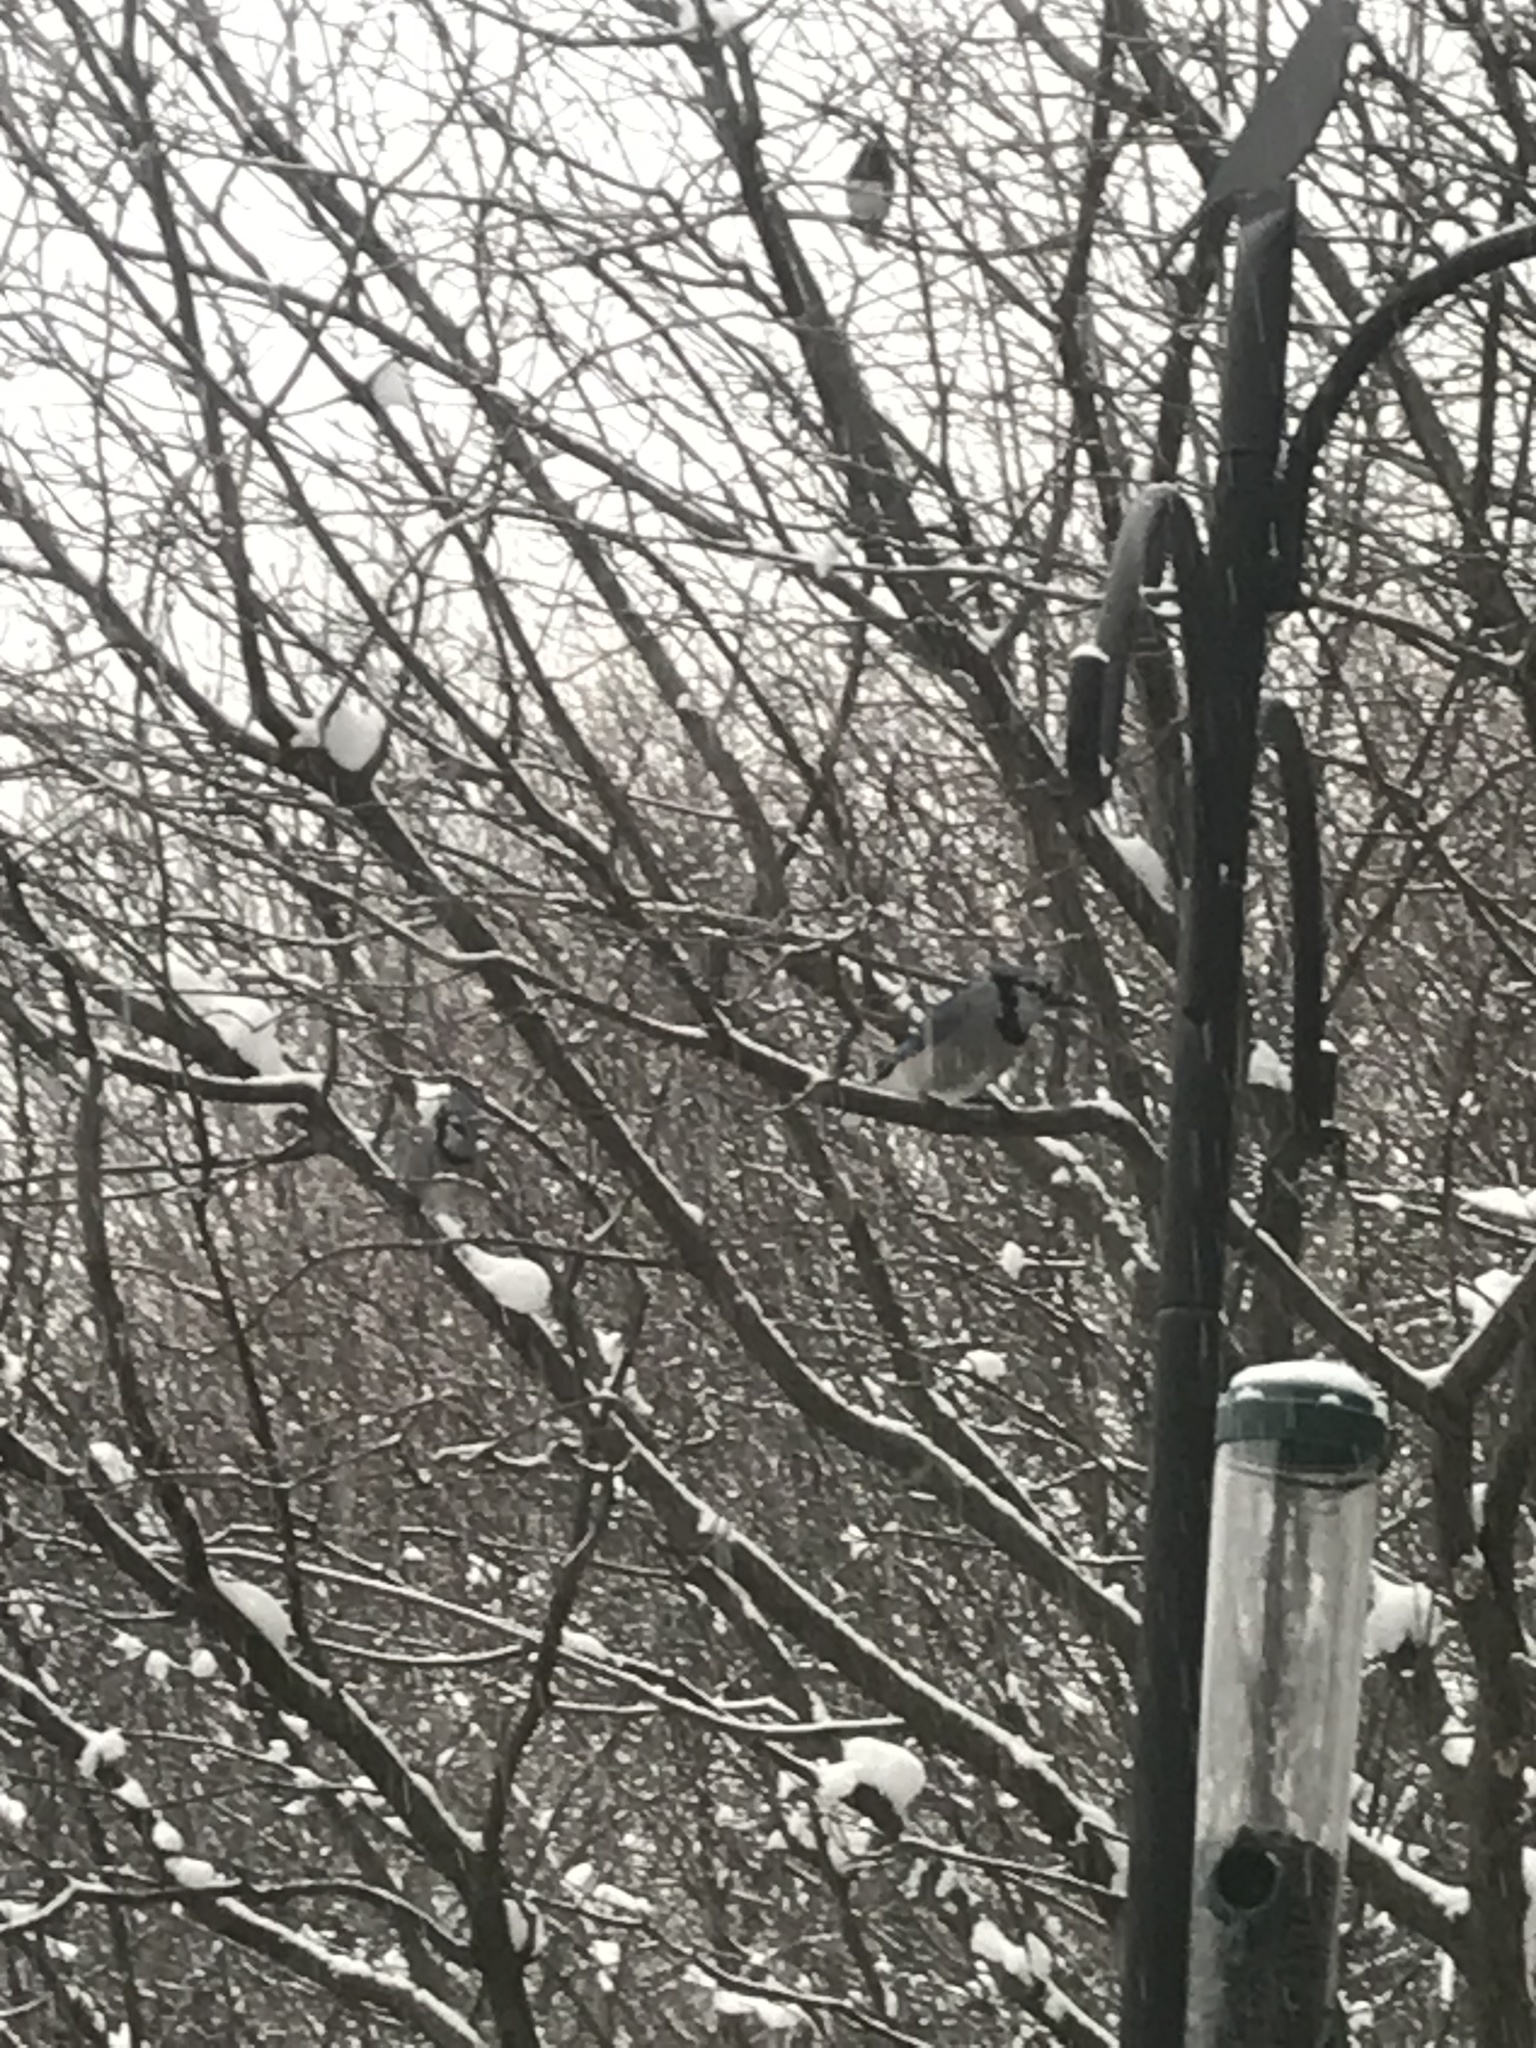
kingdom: Animalia
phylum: Chordata
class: Aves
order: Passeriformes
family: Passerellidae
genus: Junco
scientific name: Junco hyemalis
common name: Dark-eyed junco
